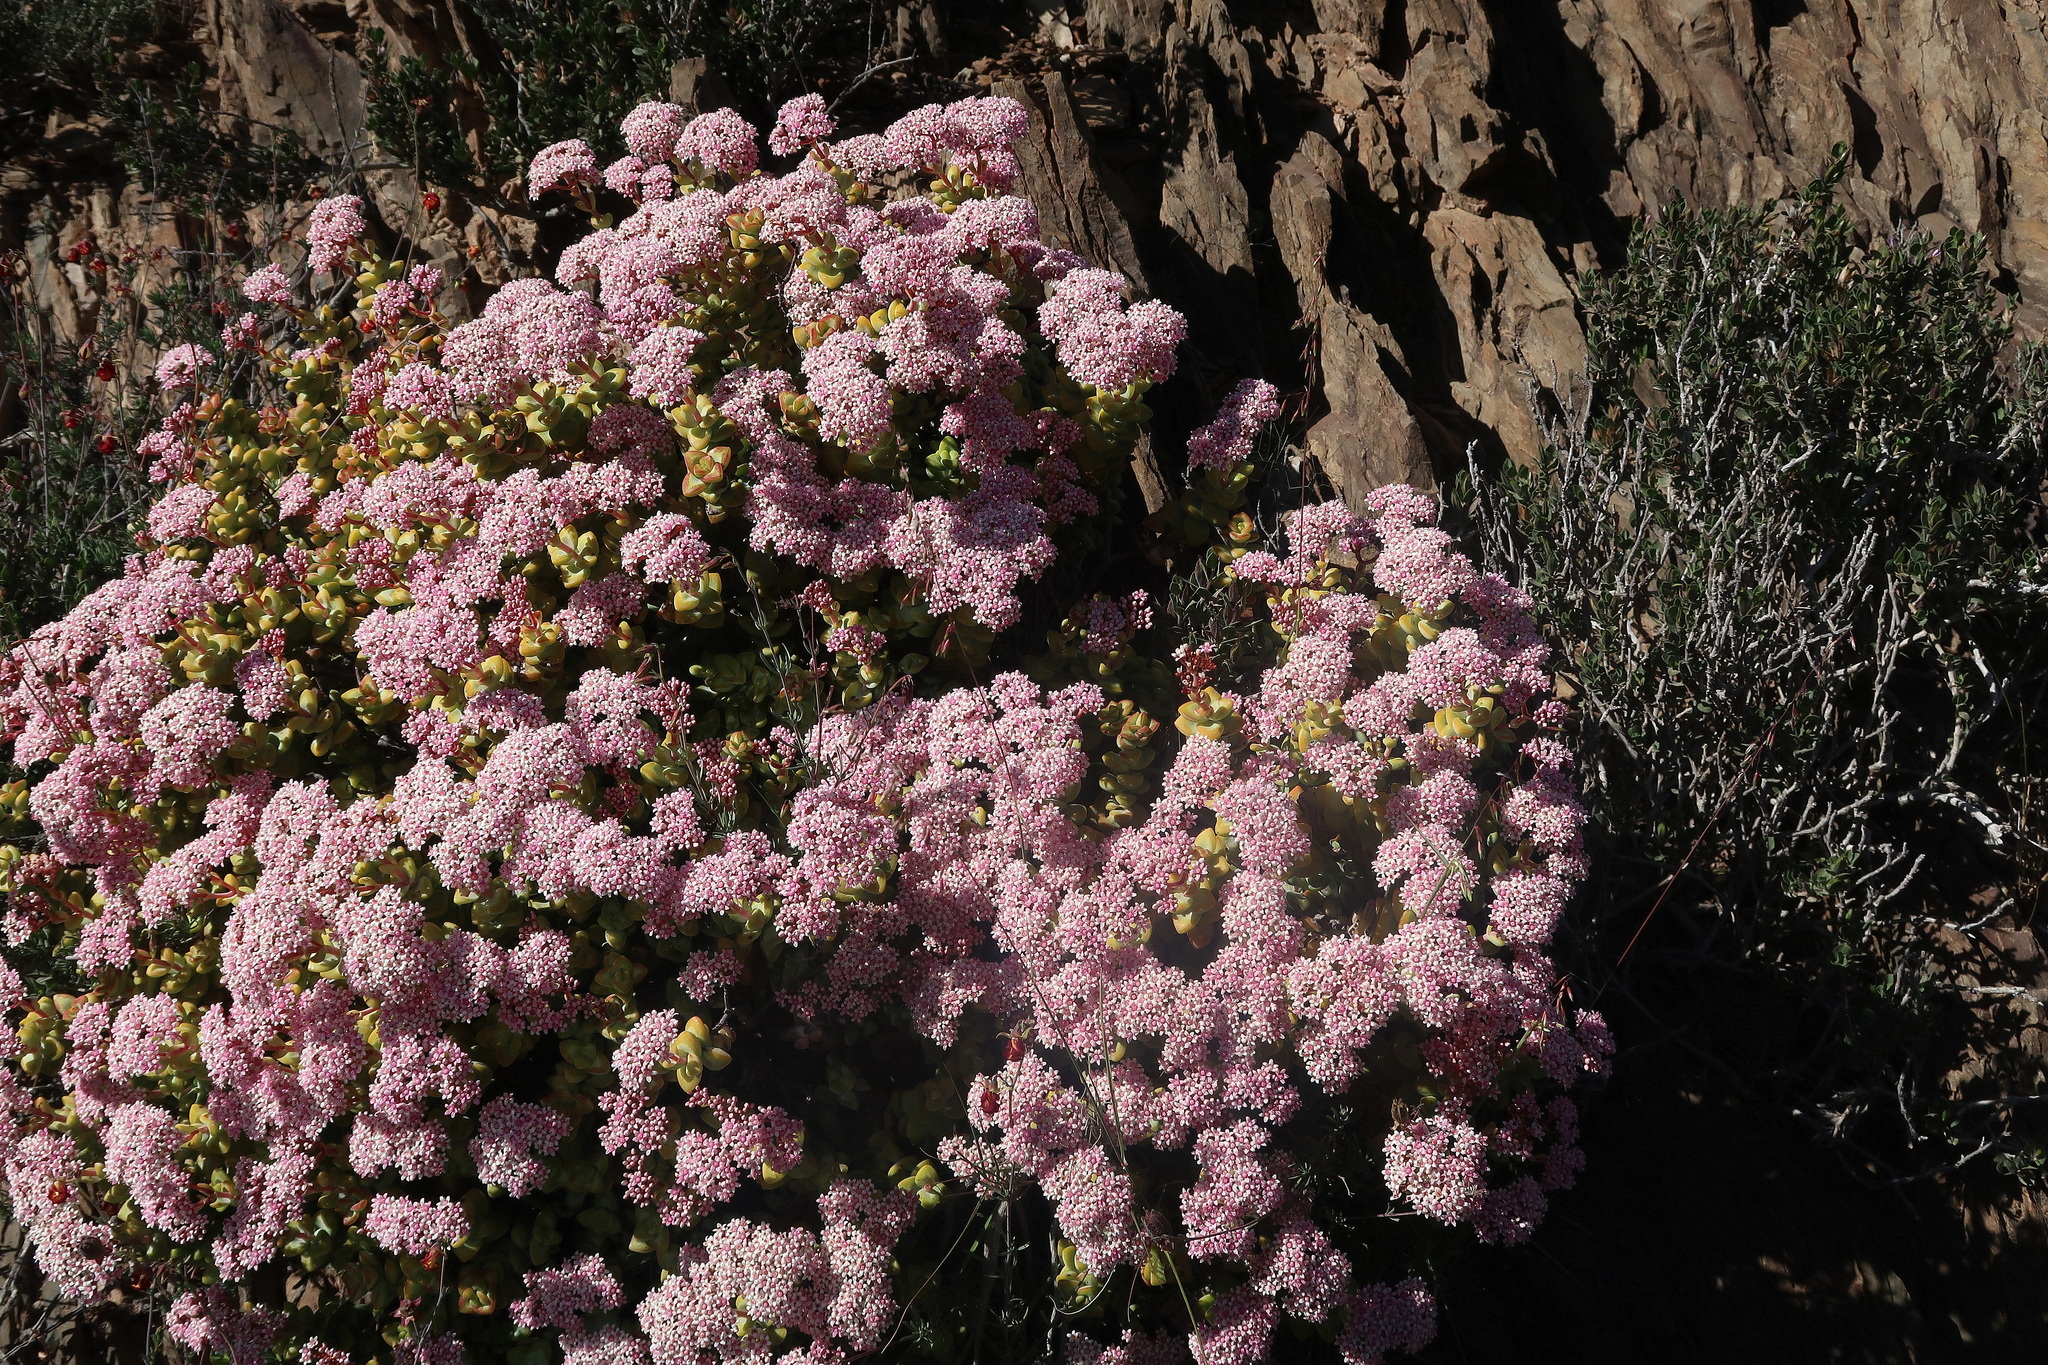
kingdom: Plantae
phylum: Tracheophyta
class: Magnoliopsida
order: Saxifragales
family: Crassulaceae
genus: Crassula
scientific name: Crassula rupestris
